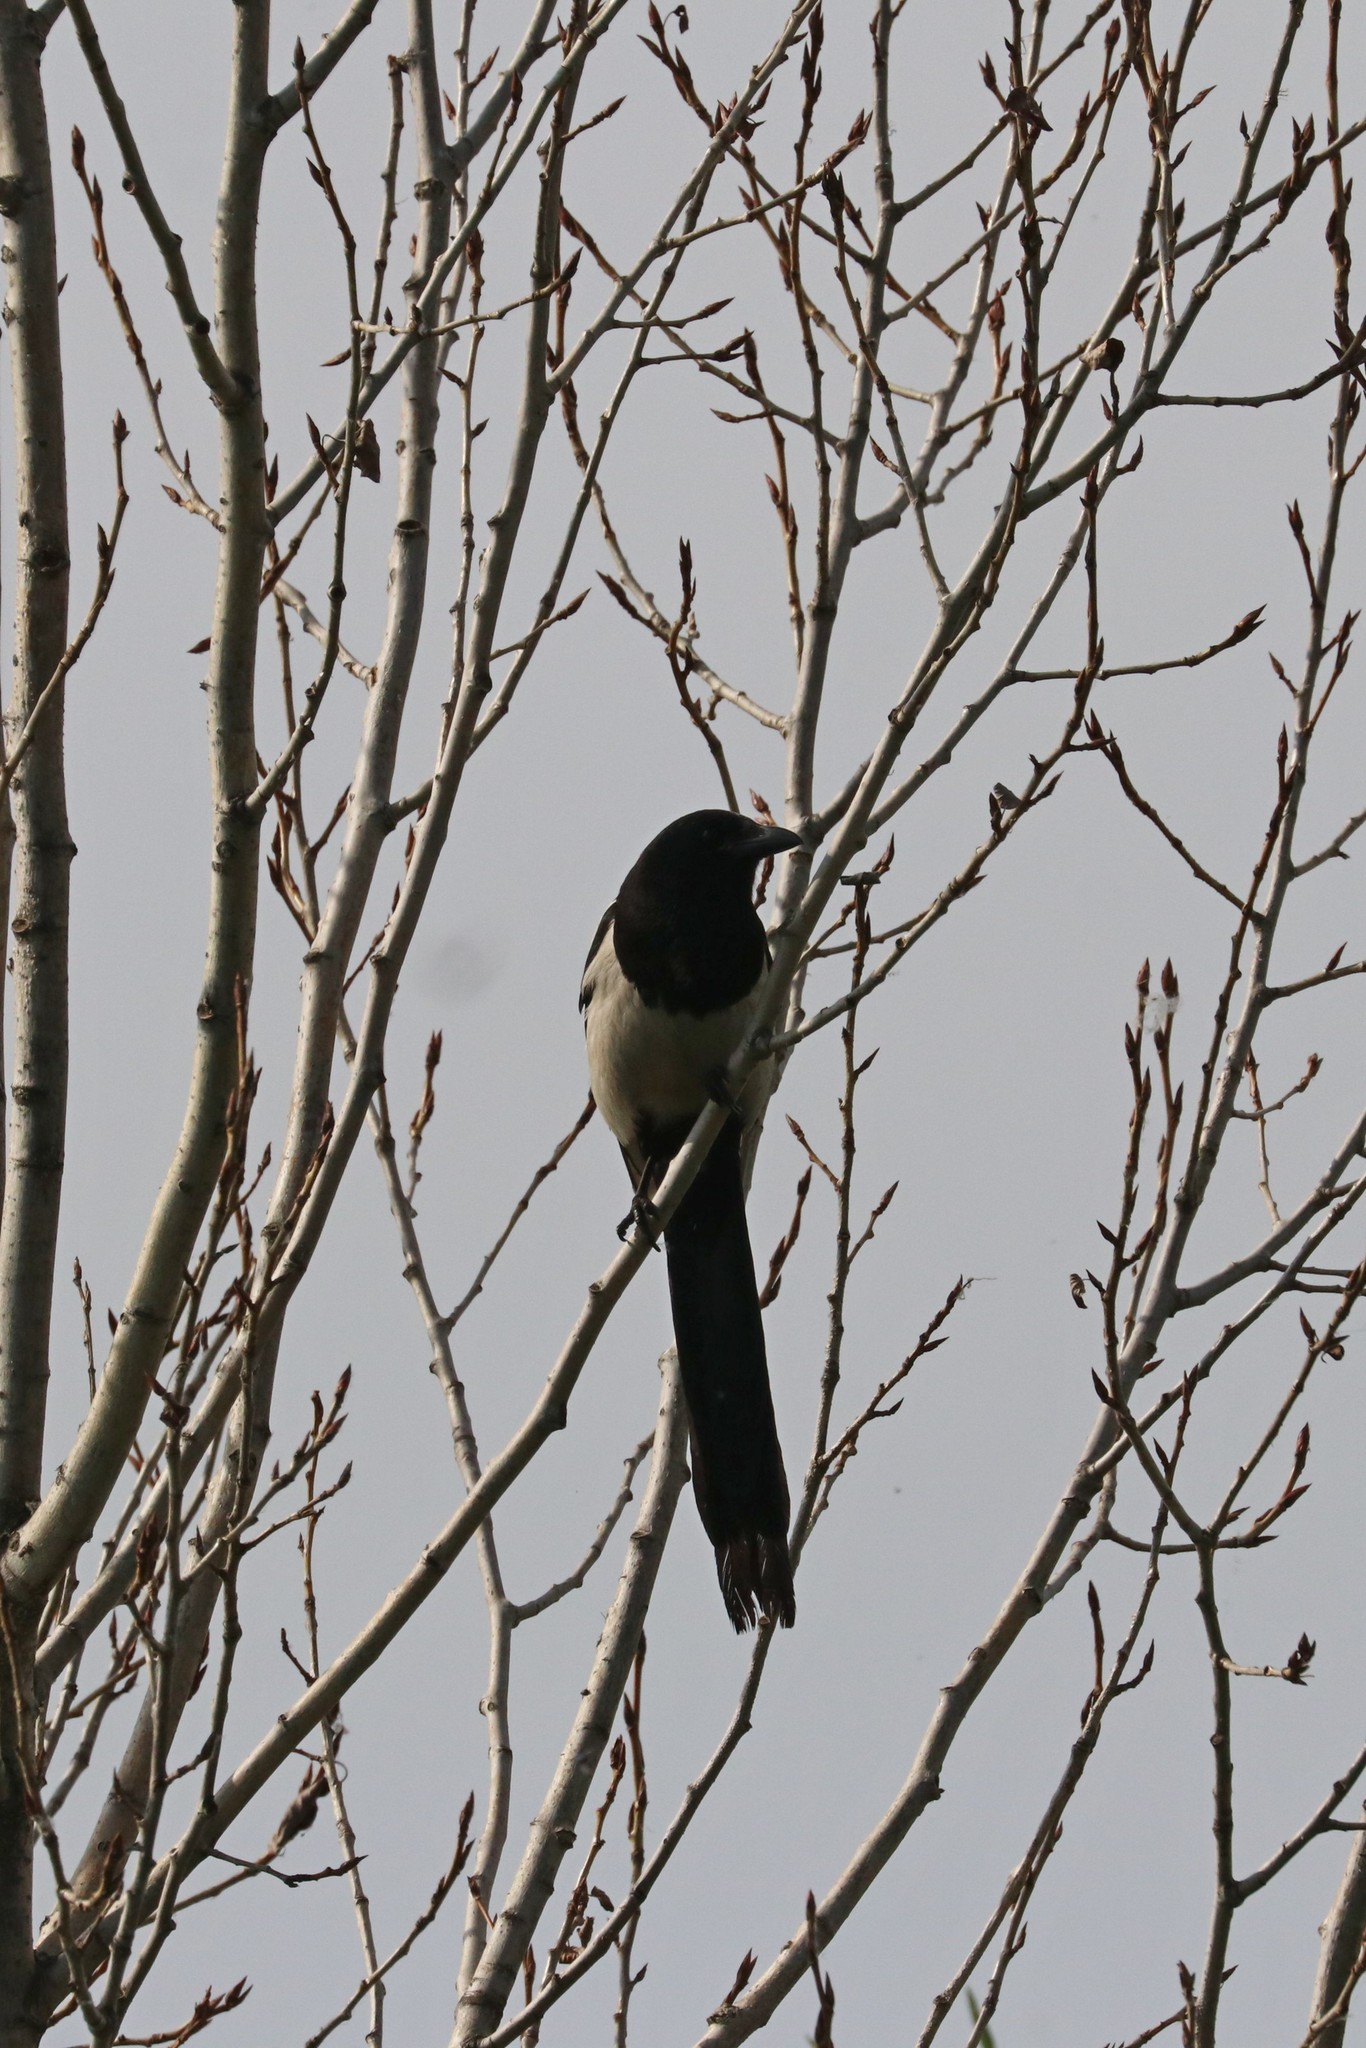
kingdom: Animalia
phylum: Chordata
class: Aves
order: Passeriformes
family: Corvidae
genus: Pica
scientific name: Pica pica
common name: Eurasian magpie
